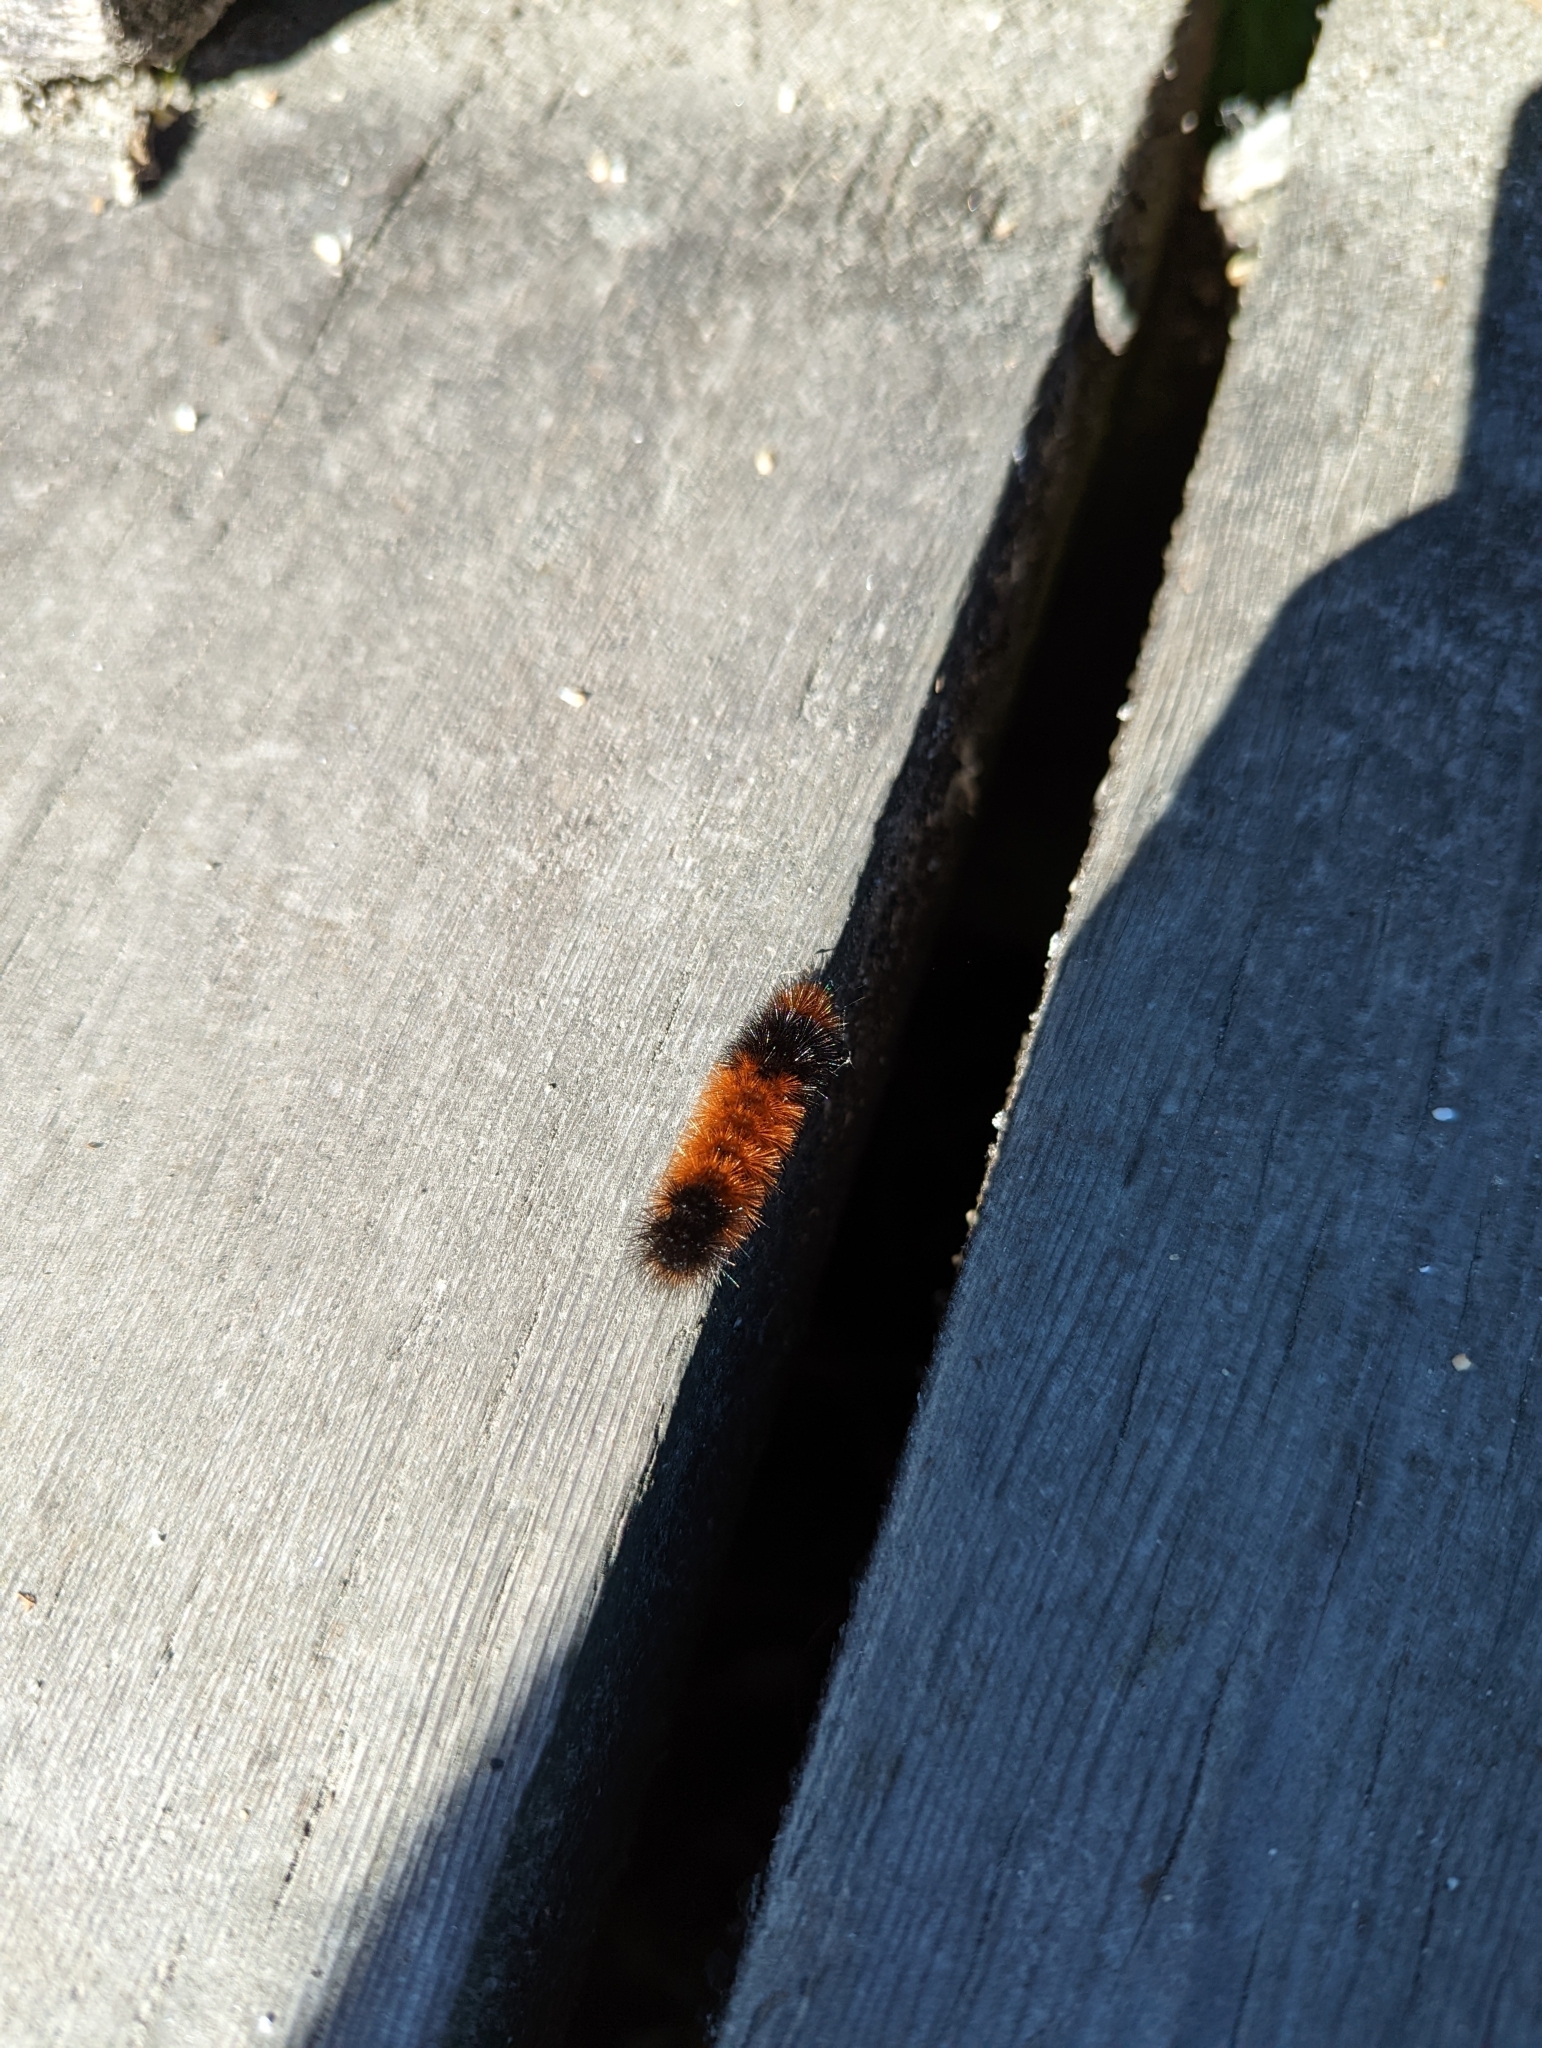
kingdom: Animalia
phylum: Arthropoda
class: Insecta
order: Lepidoptera
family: Erebidae
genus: Pyrrharctia
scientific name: Pyrrharctia isabella
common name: Isabella tiger moth
